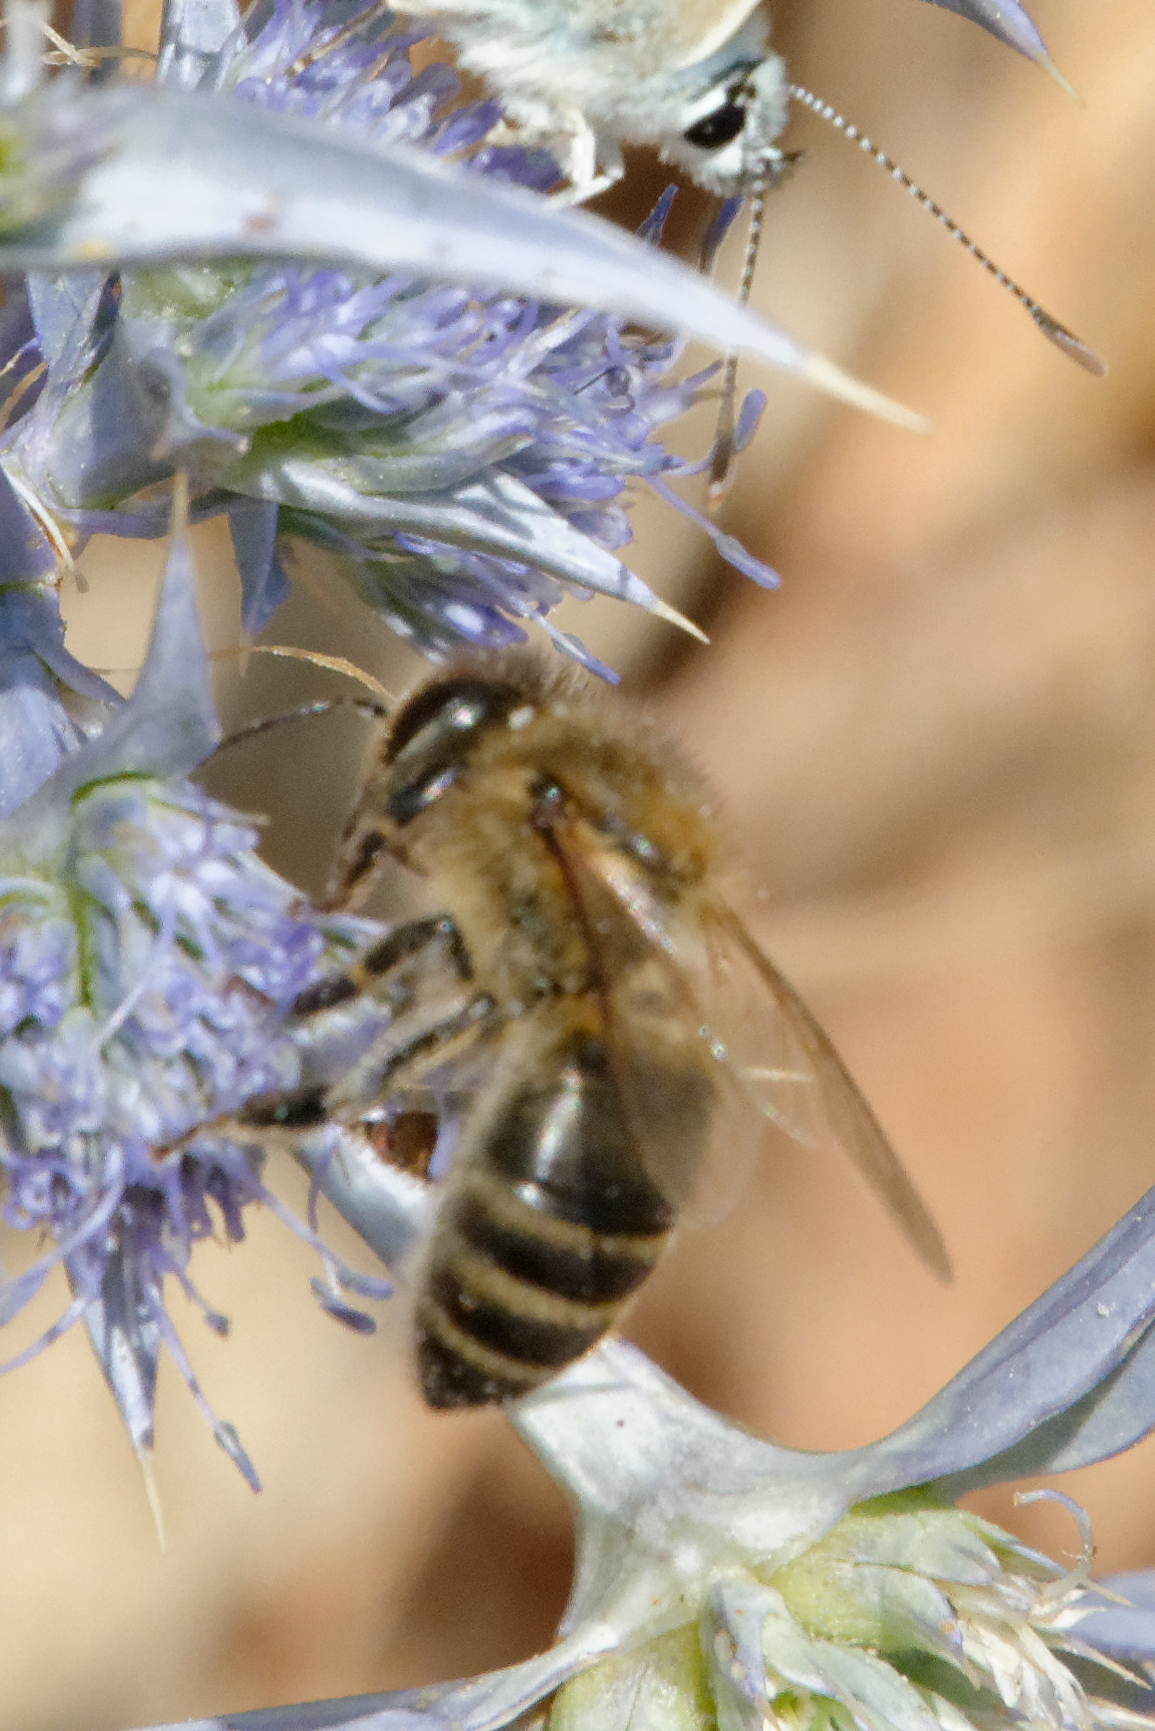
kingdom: Animalia
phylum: Arthropoda
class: Insecta
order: Hymenoptera
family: Apidae
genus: Apis
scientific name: Apis mellifera
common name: Honey bee
